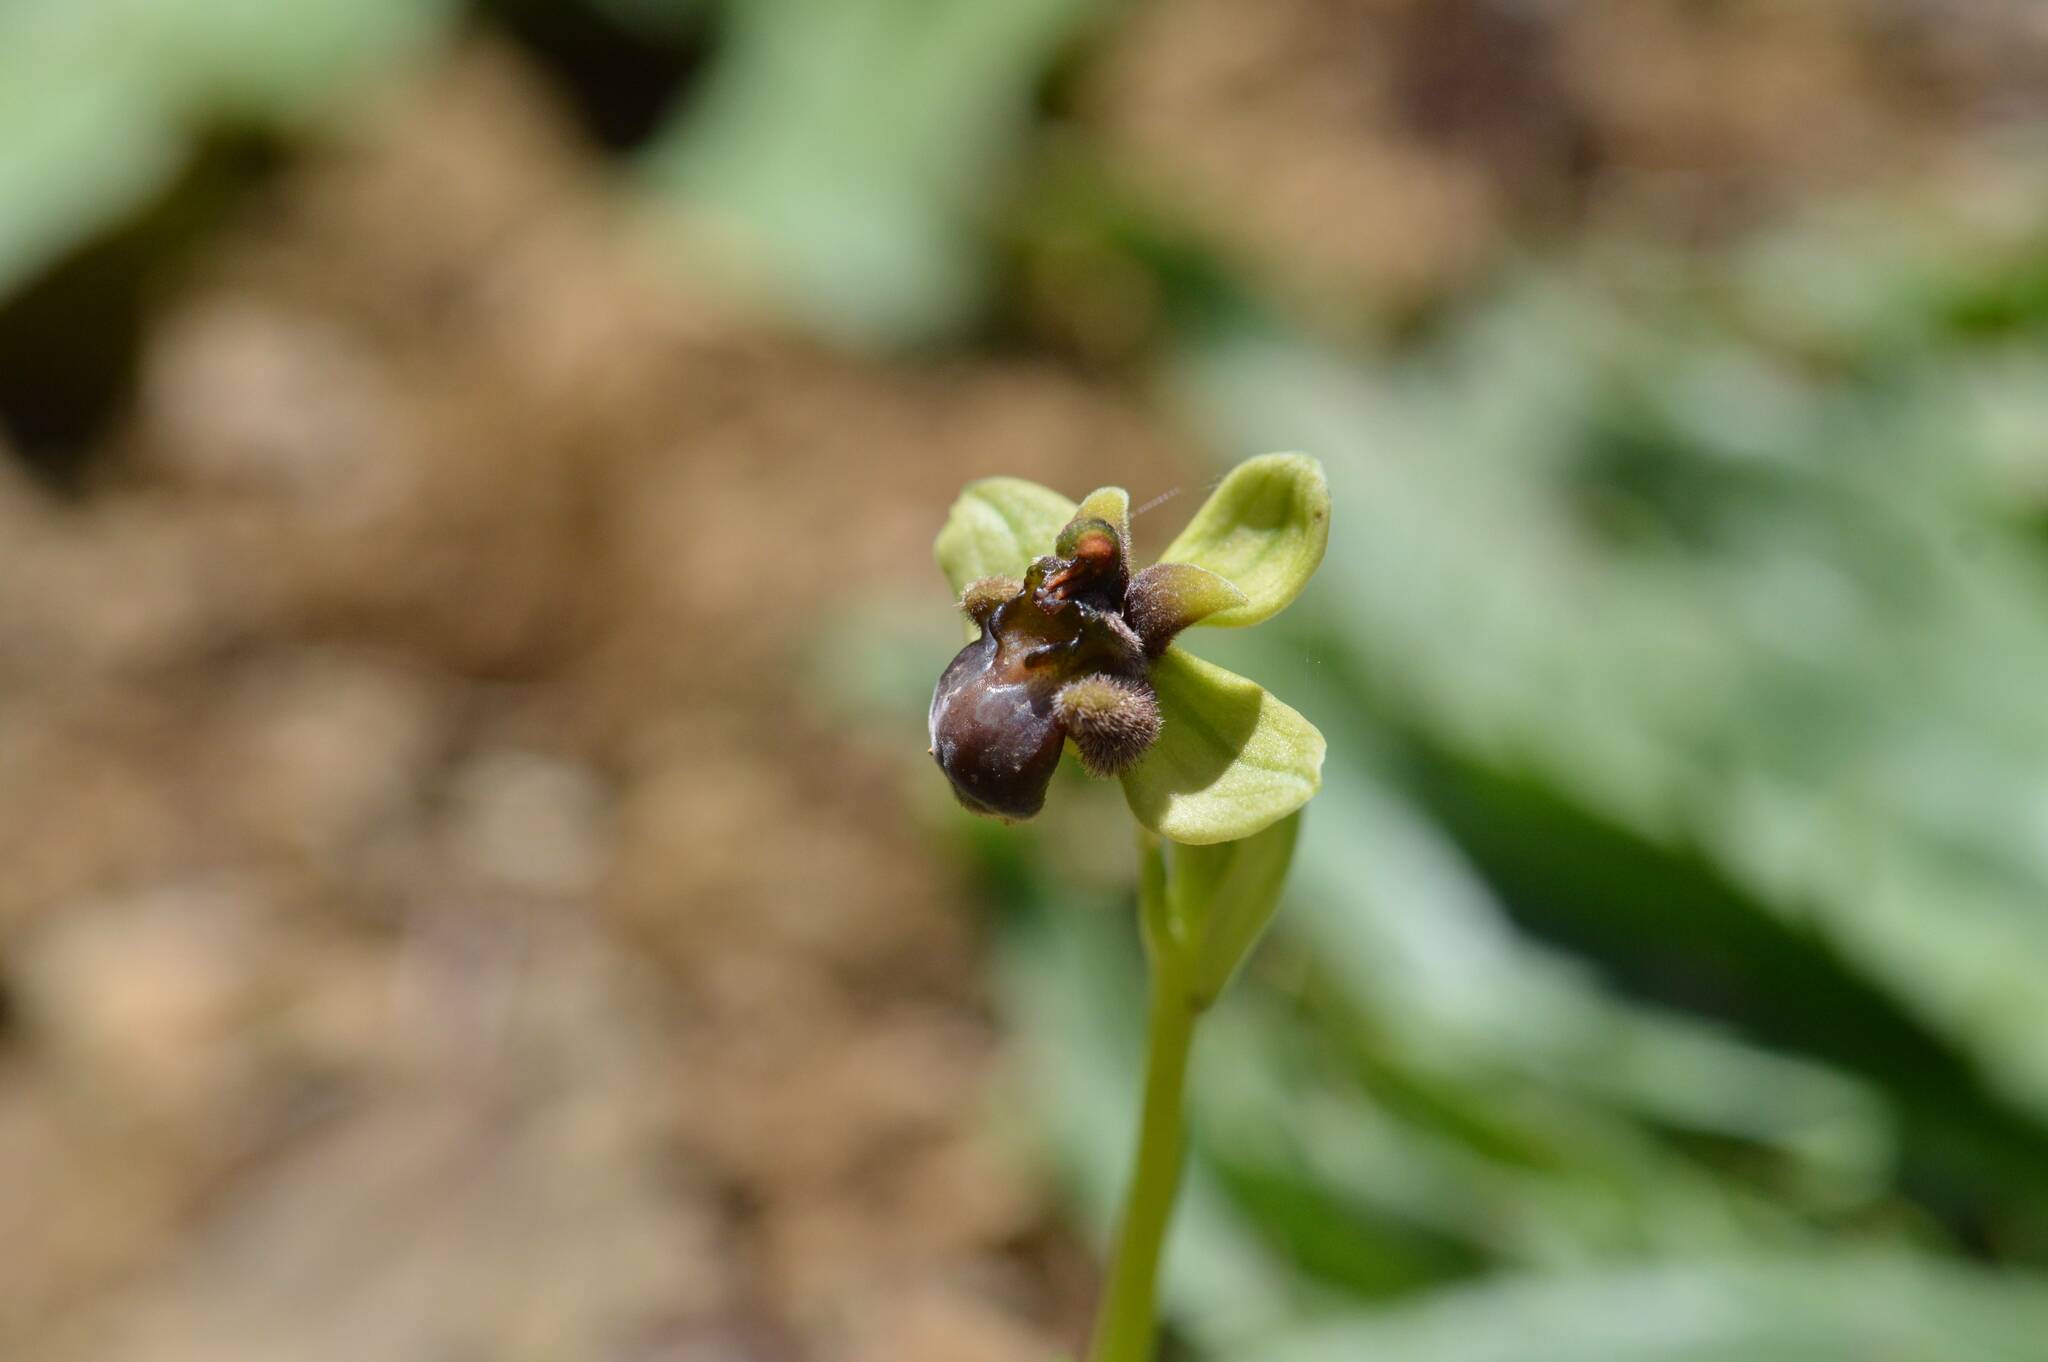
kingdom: Plantae
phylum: Tracheophyta
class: Liliopsida
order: Asparagales
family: Orchidaceae
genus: Ophrys
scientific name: Ophrys bombyliflora
